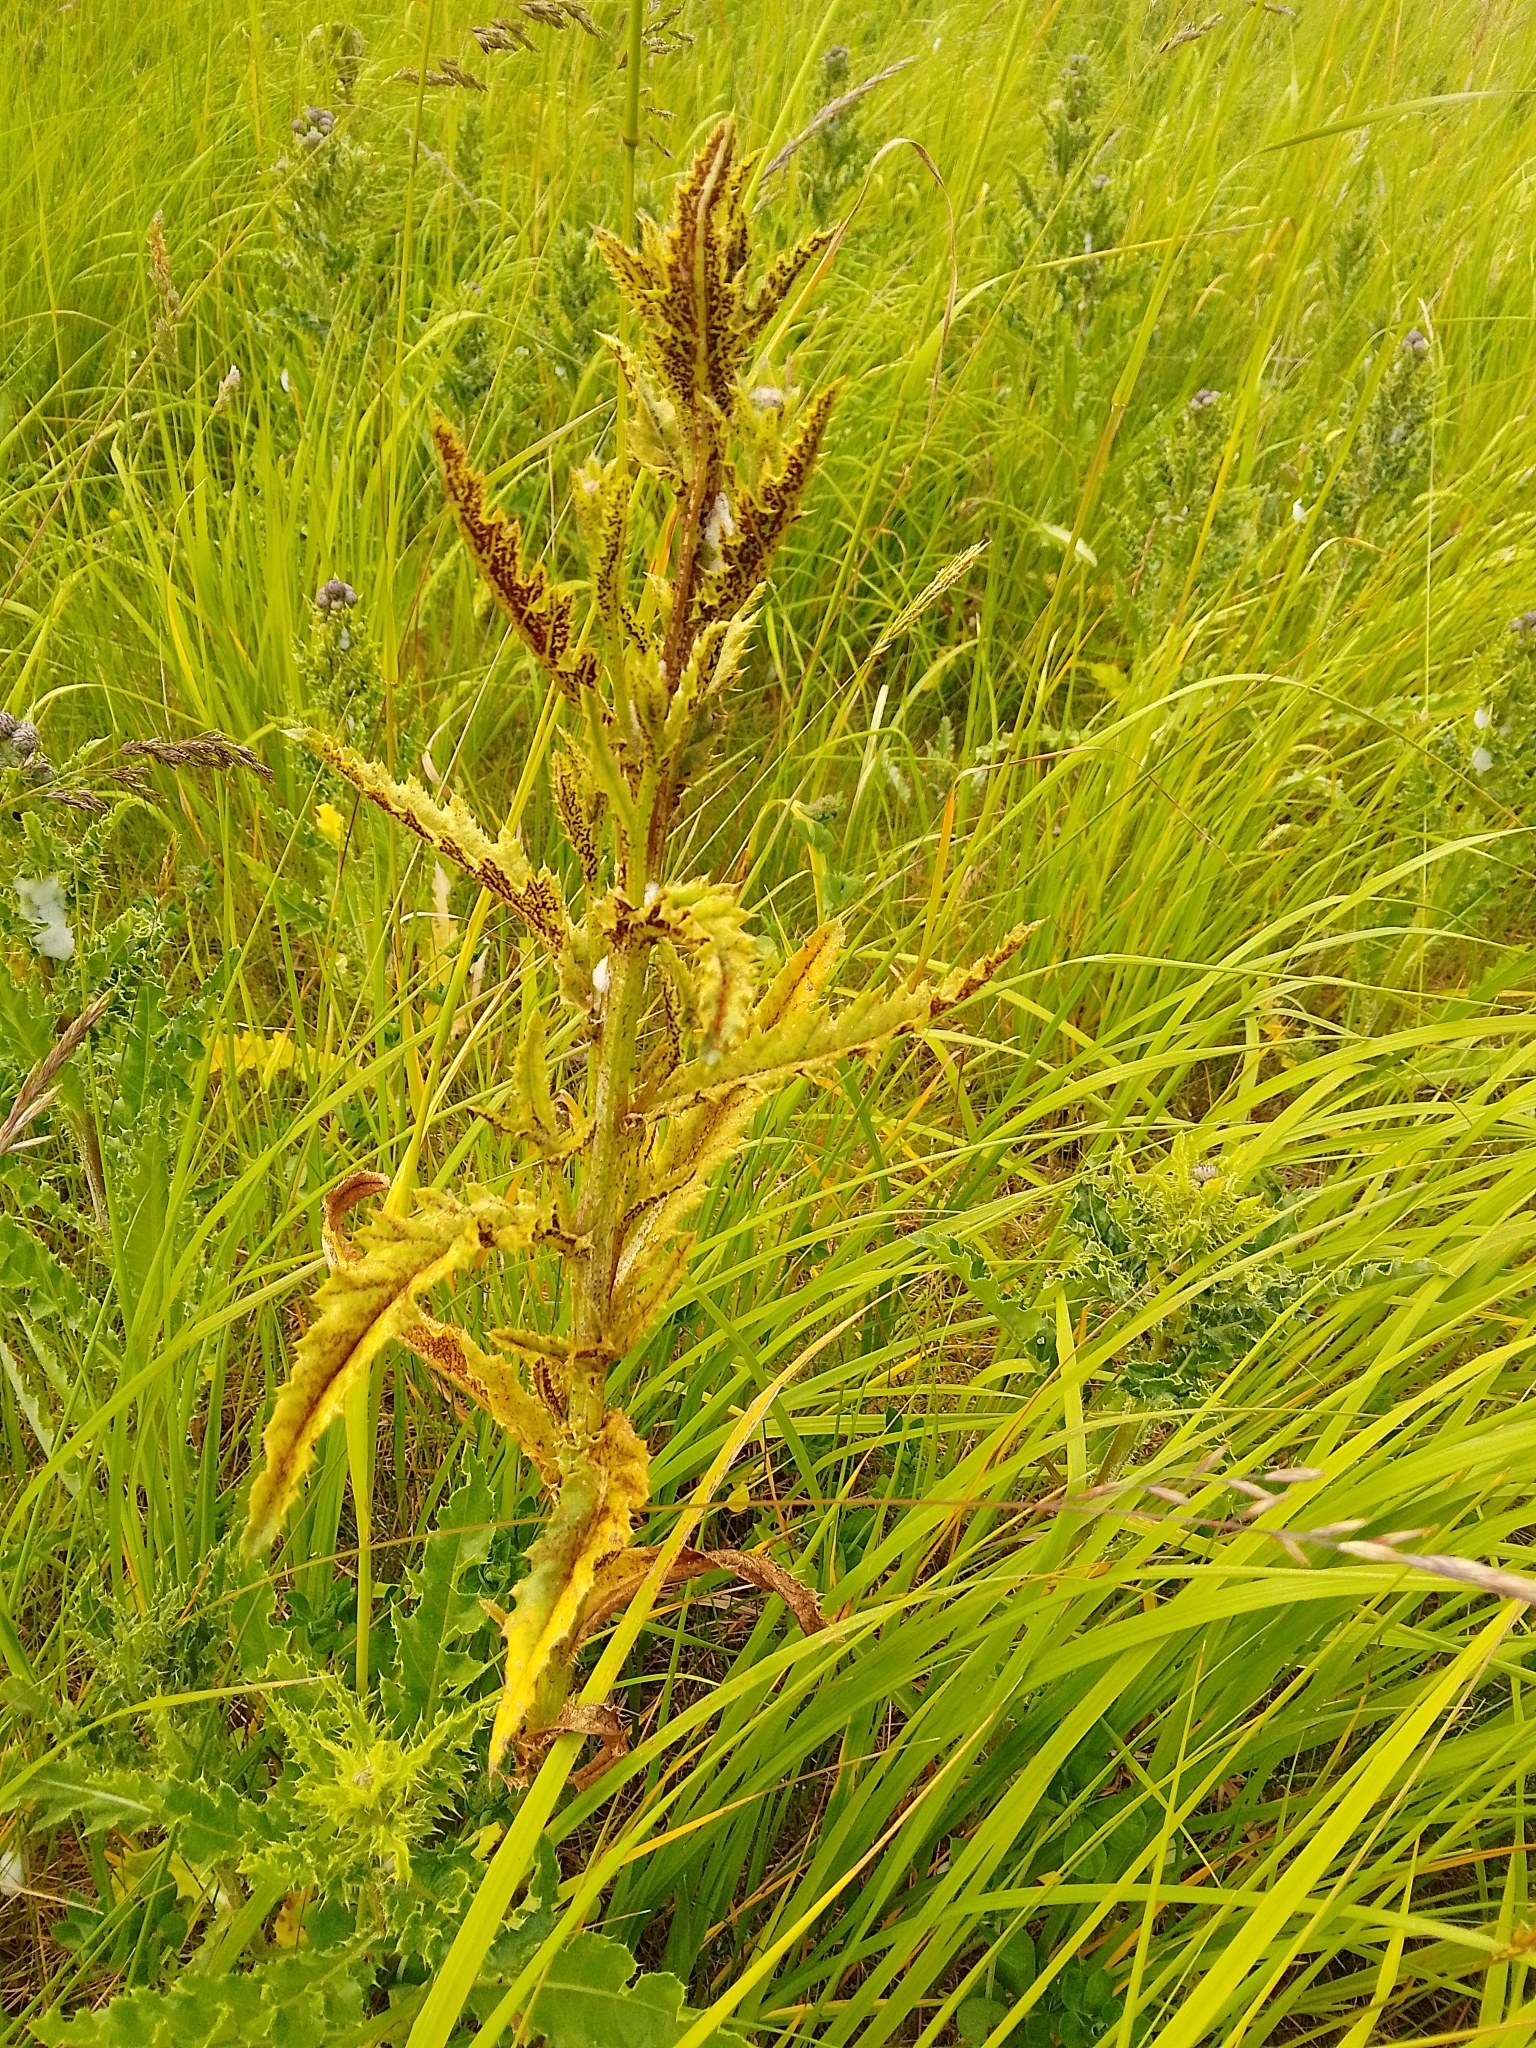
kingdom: Fungi
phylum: Basidiomycota
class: Pucciniomycetes
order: Pucciniales
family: Pucciniaceae
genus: Puccinia
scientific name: Puccinia suaveolens
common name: Thistle rust
